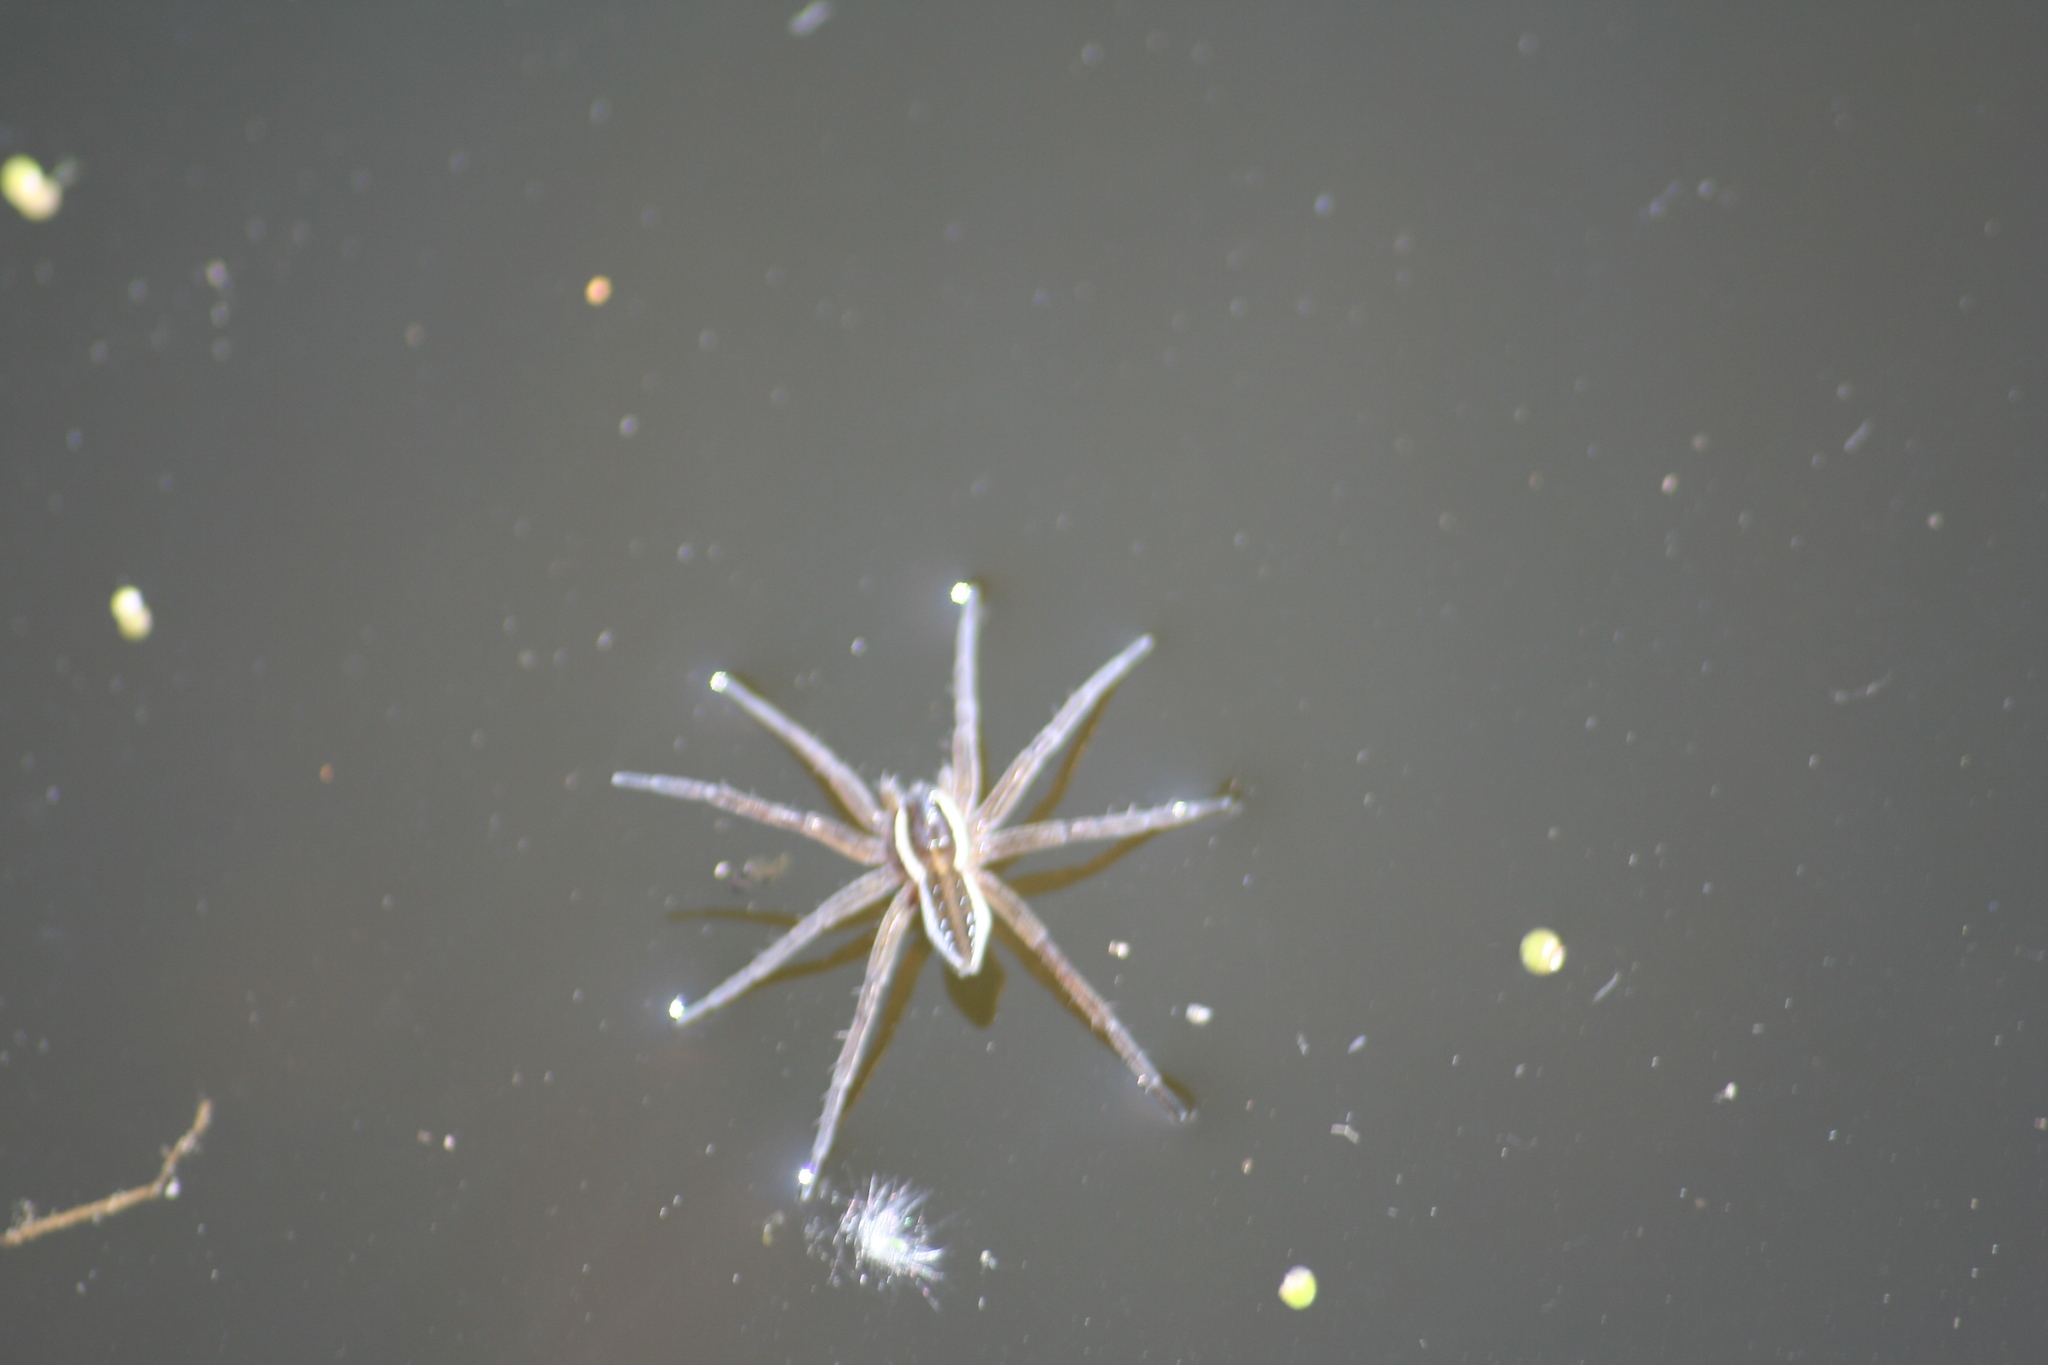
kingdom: Animalia
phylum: Arthropoda
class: Arachnida
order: Araneae
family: Pisauridae
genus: Dolomedes
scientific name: Dolomedes triton
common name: Six-spotted fishing spider
